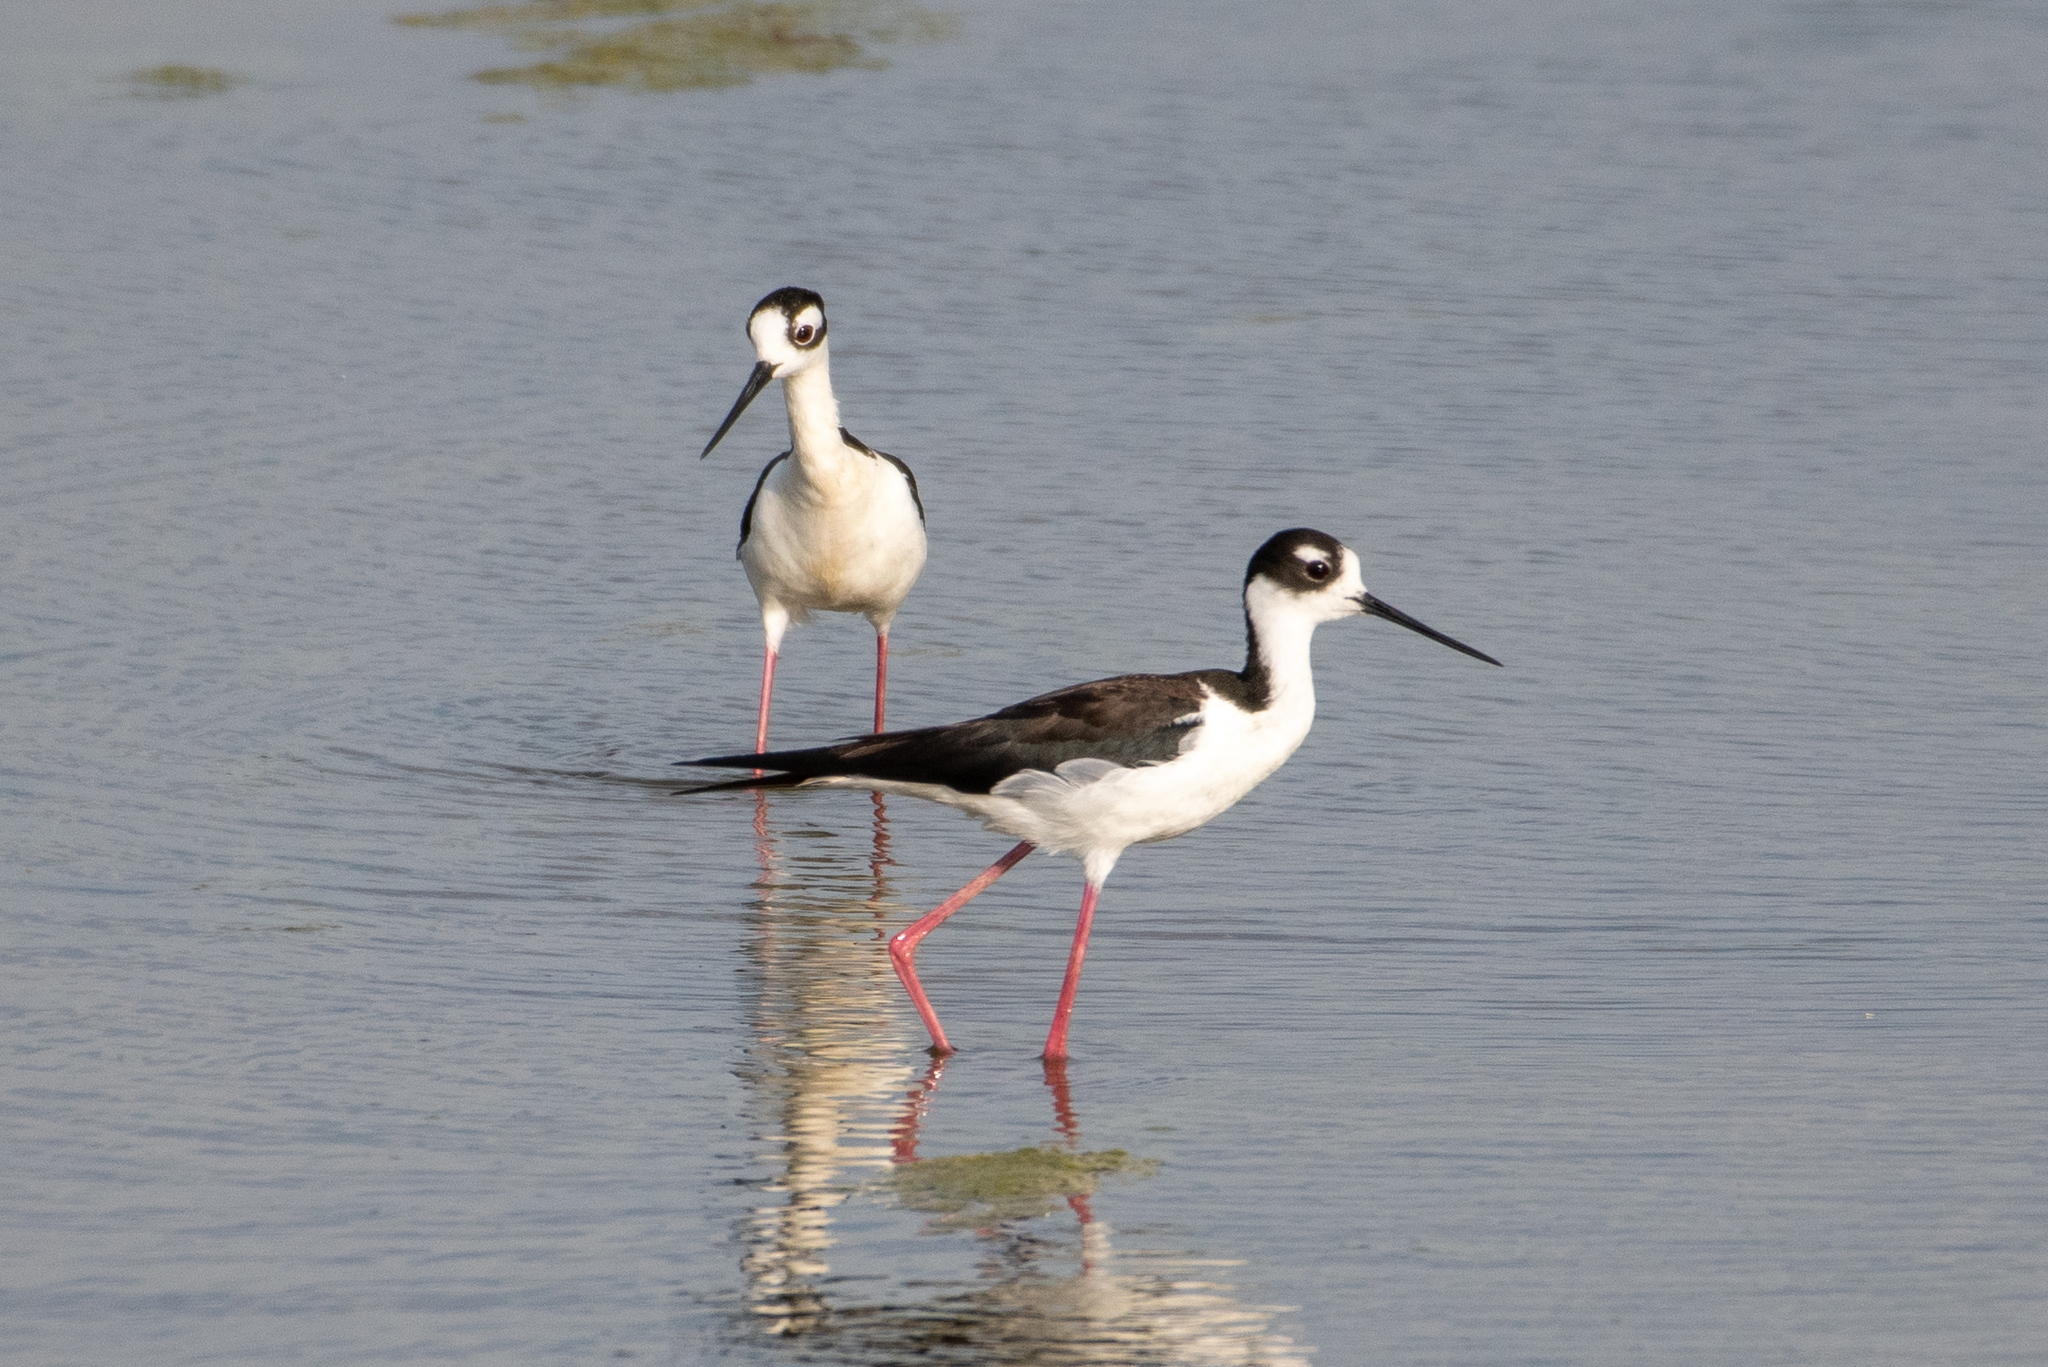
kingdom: Animalia
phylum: Chordata
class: Aves
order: Charadriiformes
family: Recurvirostridae
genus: Himantopus
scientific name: Himantopus mexicanus
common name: Black-necked stilt
